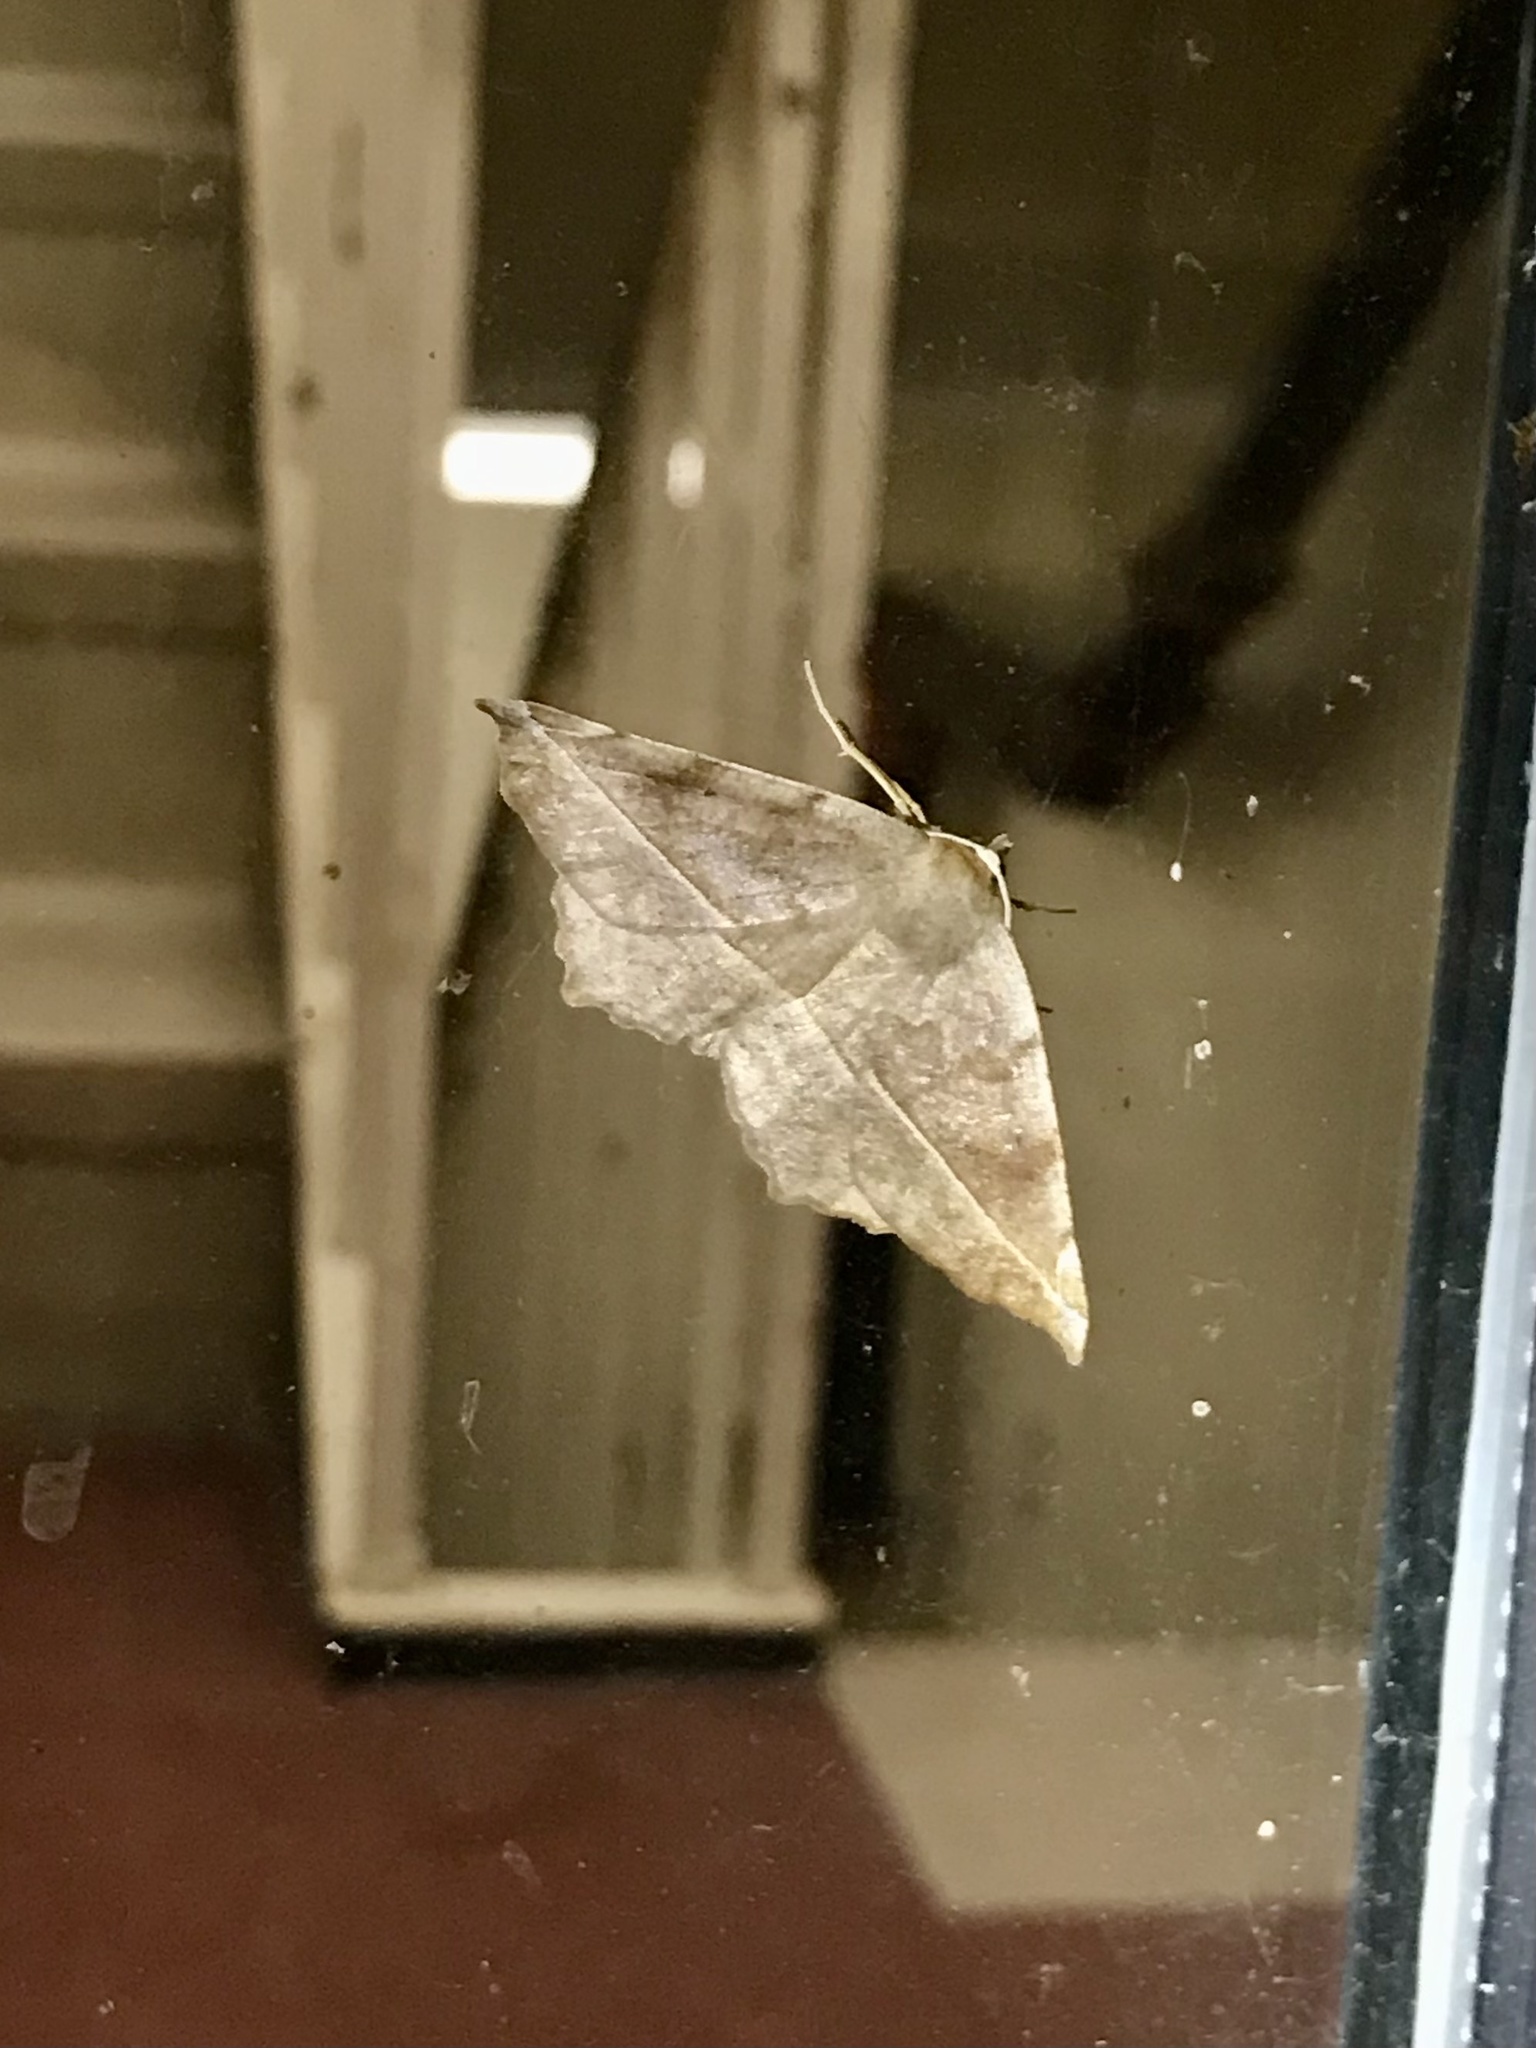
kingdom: Animalia
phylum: Arthropoda
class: Insecta
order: Lepidoptera
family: Geometridae
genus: Eutrapela
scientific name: Eutrapela clemataria
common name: Curved-toothed geometer
